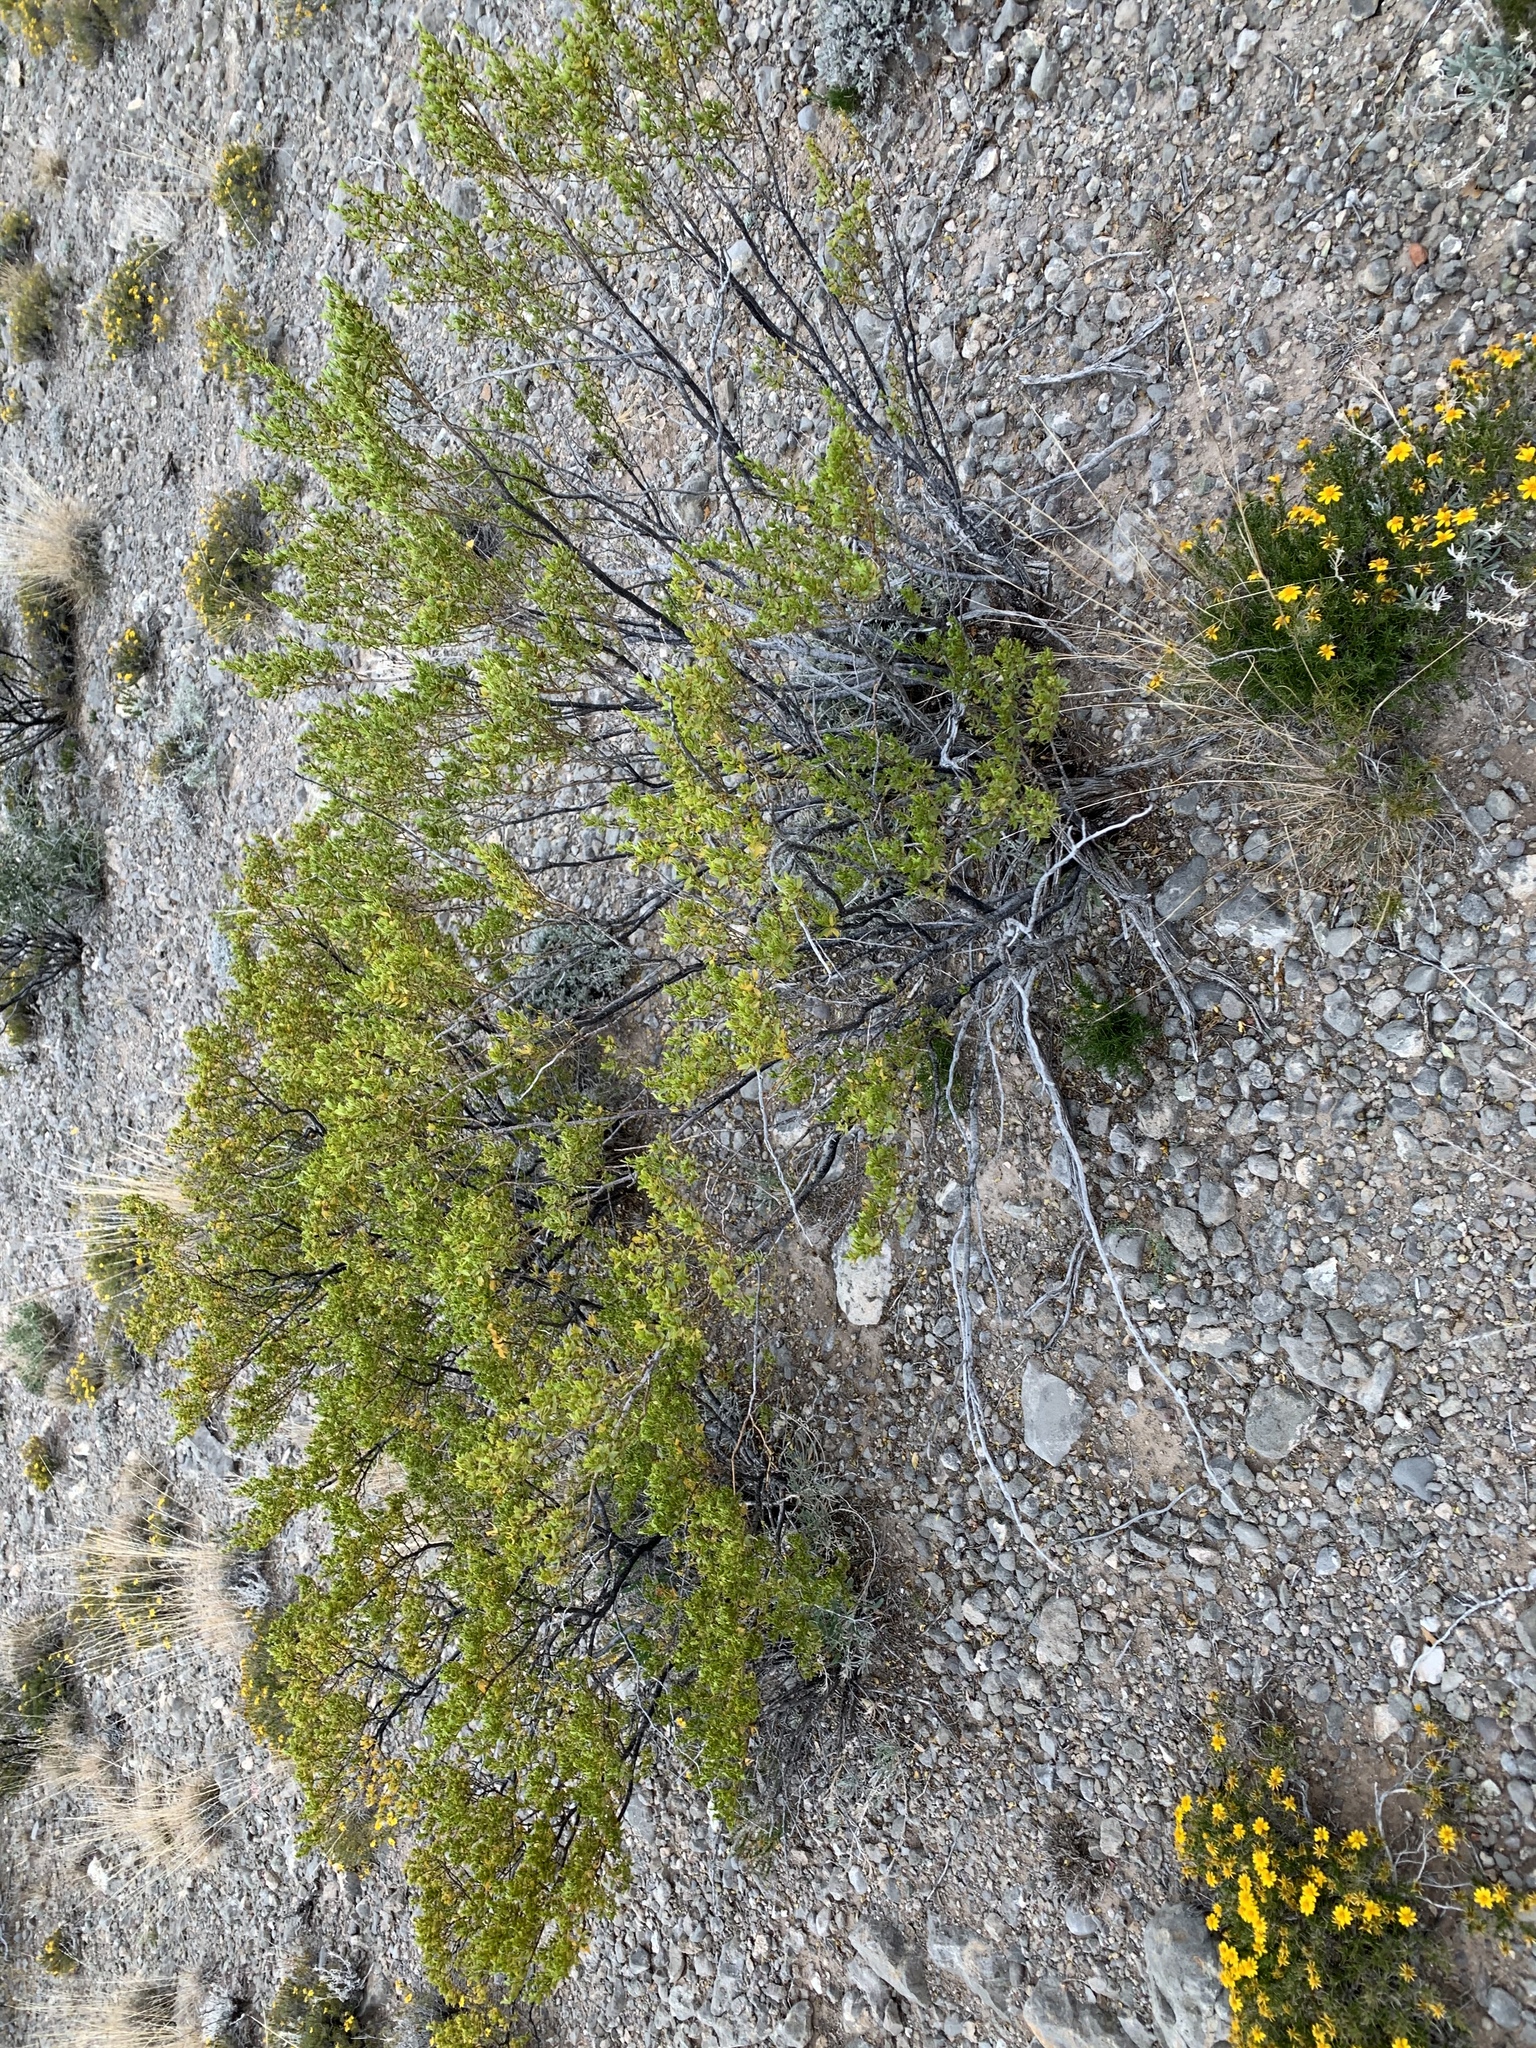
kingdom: Plantae
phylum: Tracheophyta
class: Magnoliopsida
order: Zygophyllales
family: Zygophyllaceae
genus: Larrea
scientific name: Larrea tridentata
